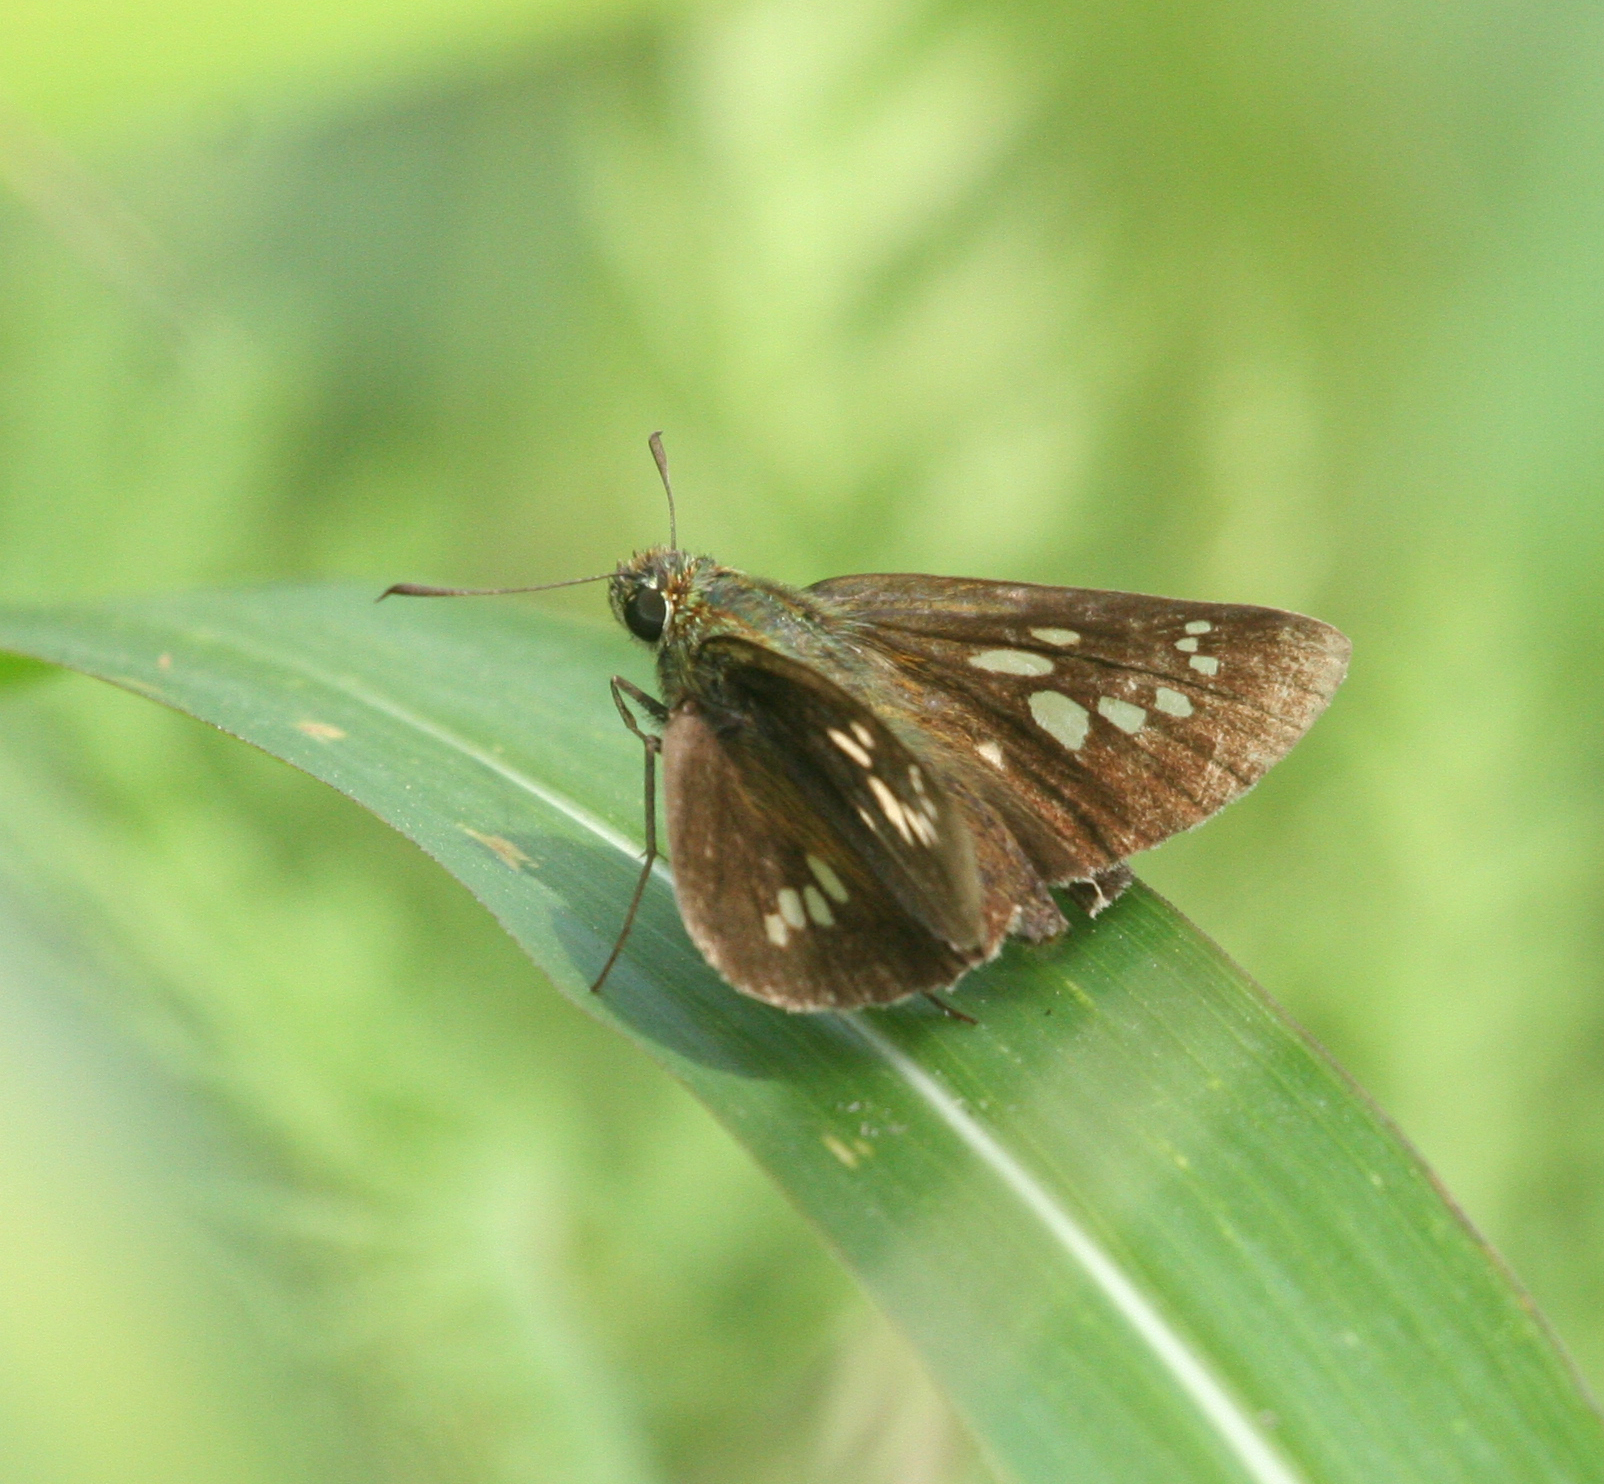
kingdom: Animalia
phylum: Arthropoda
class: Insecta
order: Lepidoptera
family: Hesperiidae
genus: Polytremis
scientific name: Polytremis zina
